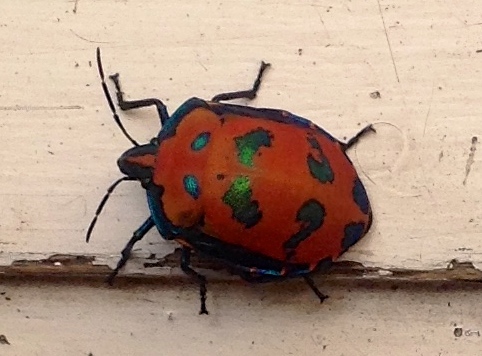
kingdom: Animalia
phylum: Arthropoda
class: Insecta
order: Hemiptera
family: Scutelleridae
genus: Tectocoris
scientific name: Tectocoris diophthalmus
